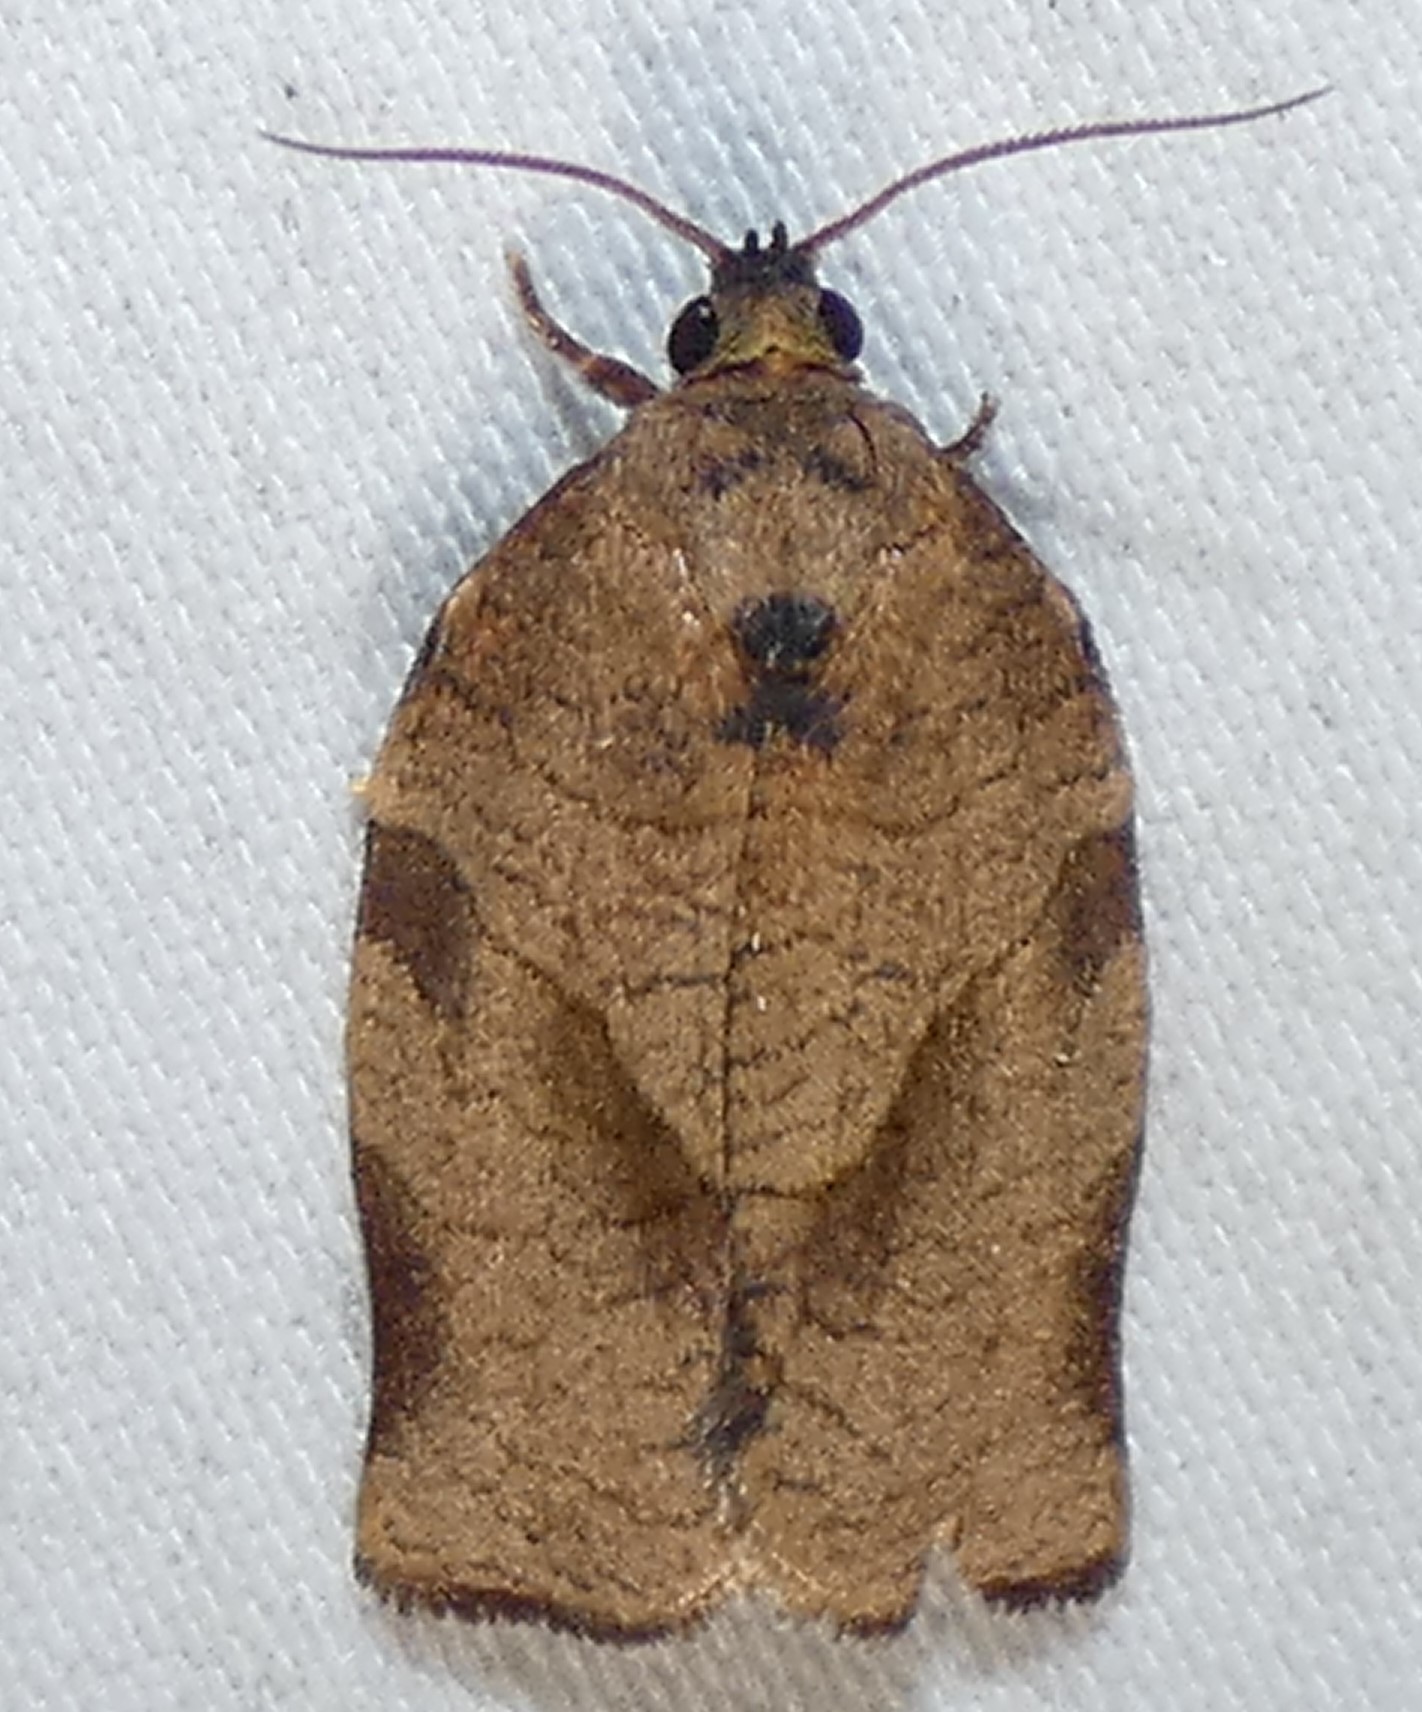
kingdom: Animalia
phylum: Arthropoda
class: Insecta
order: Lepidoptera
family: Tortricidae
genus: Choristoneura
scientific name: Choristoneura rosaceana
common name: Oblique-banded leafroller moth
